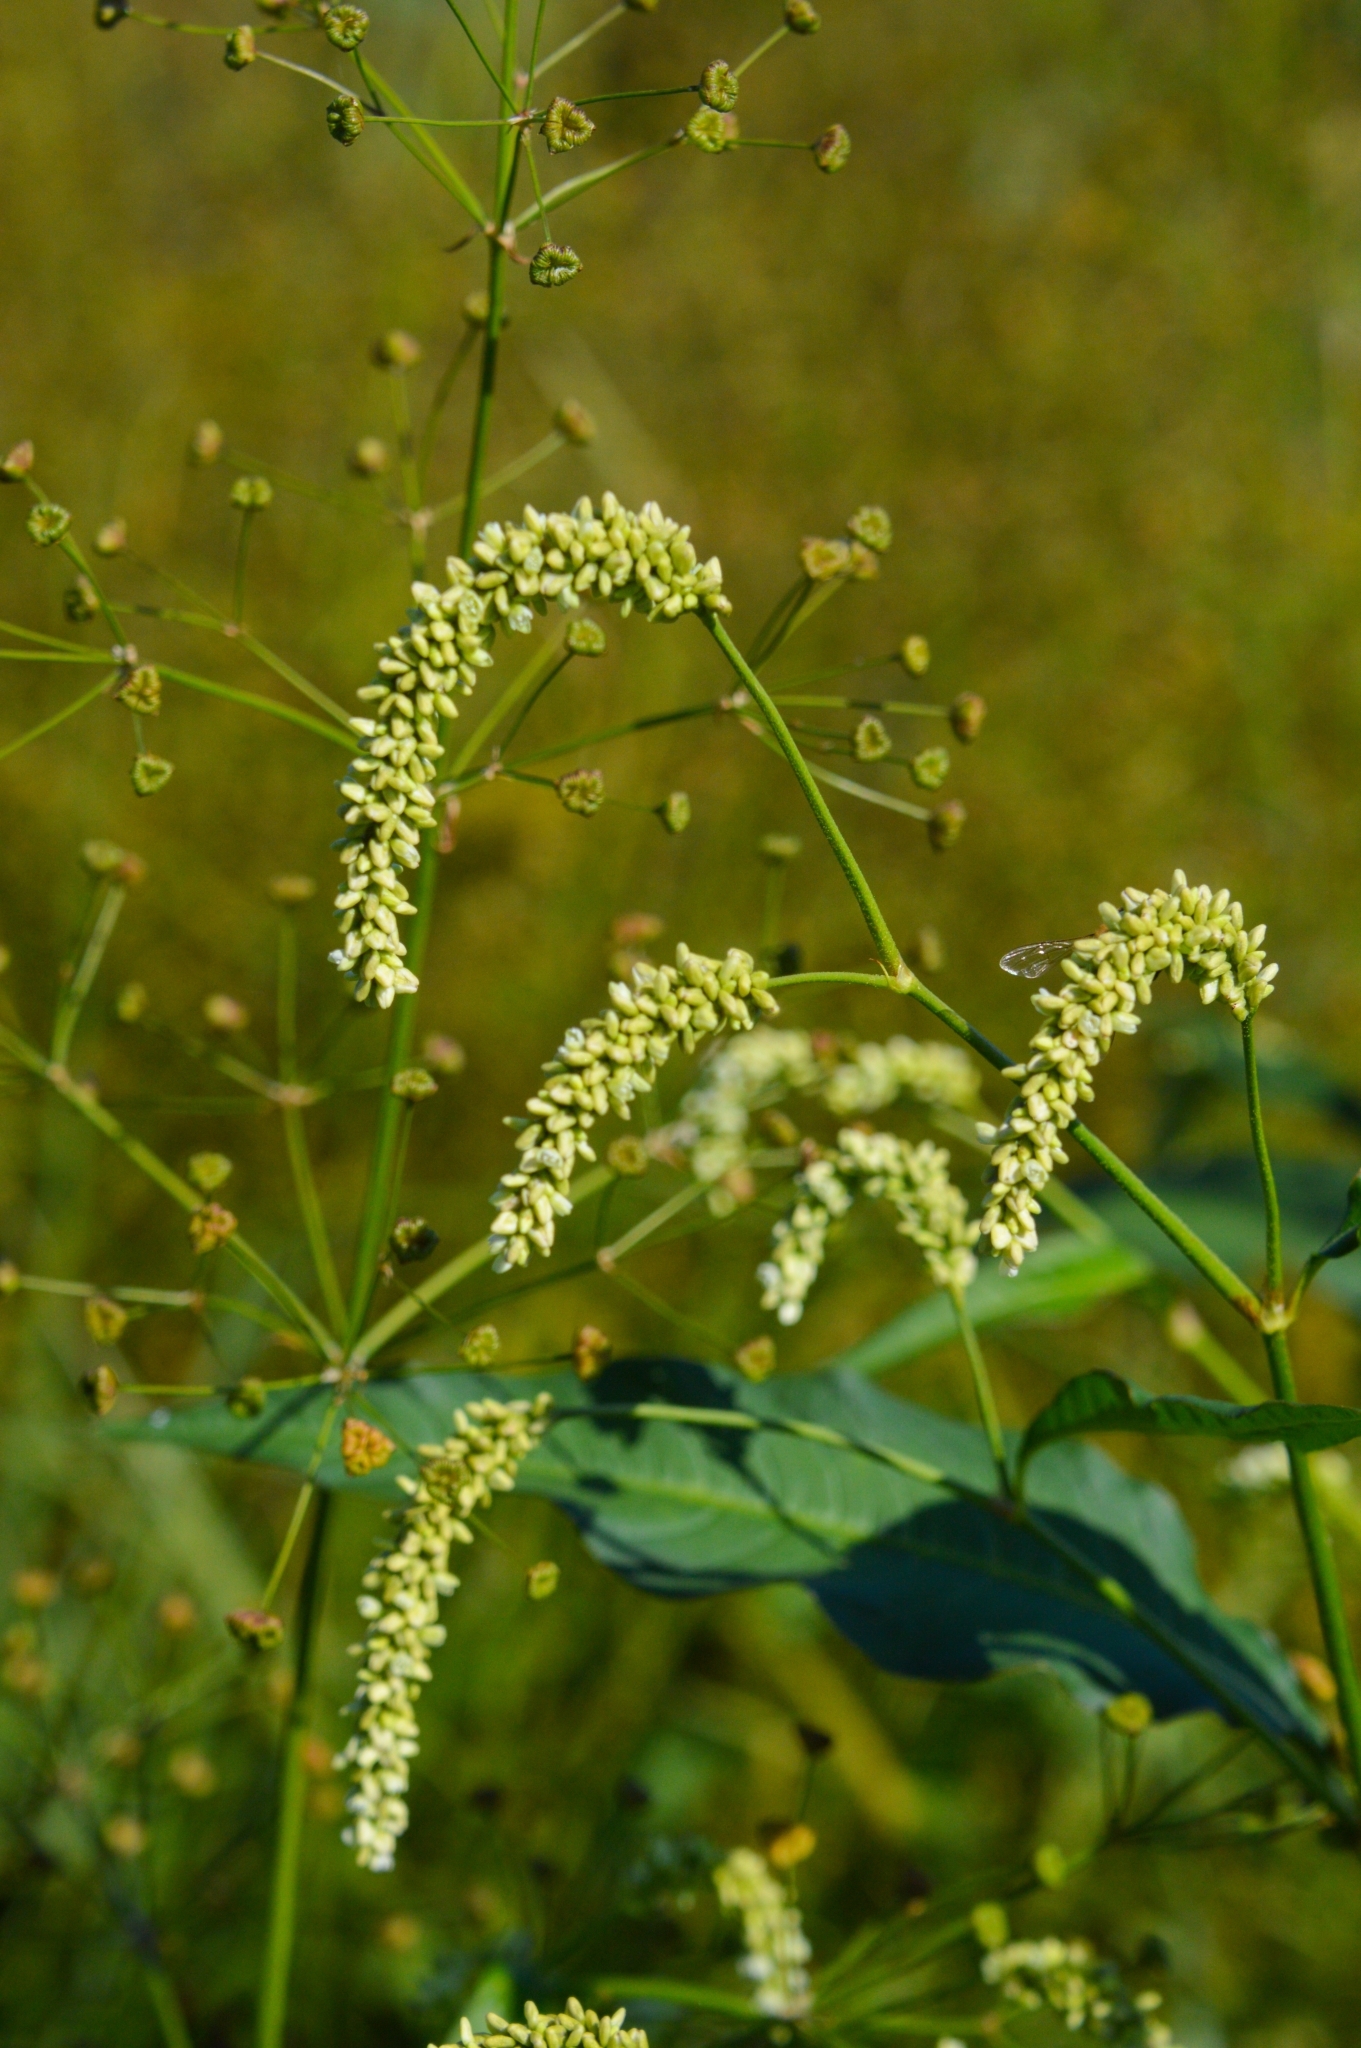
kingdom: Plantae
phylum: Tracheophyta
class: Magnoliopsida
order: Caryophyllales
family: Polygonaceae
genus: Persicaria
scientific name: Persicaria lapathifolia
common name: Curlytop knotweed
